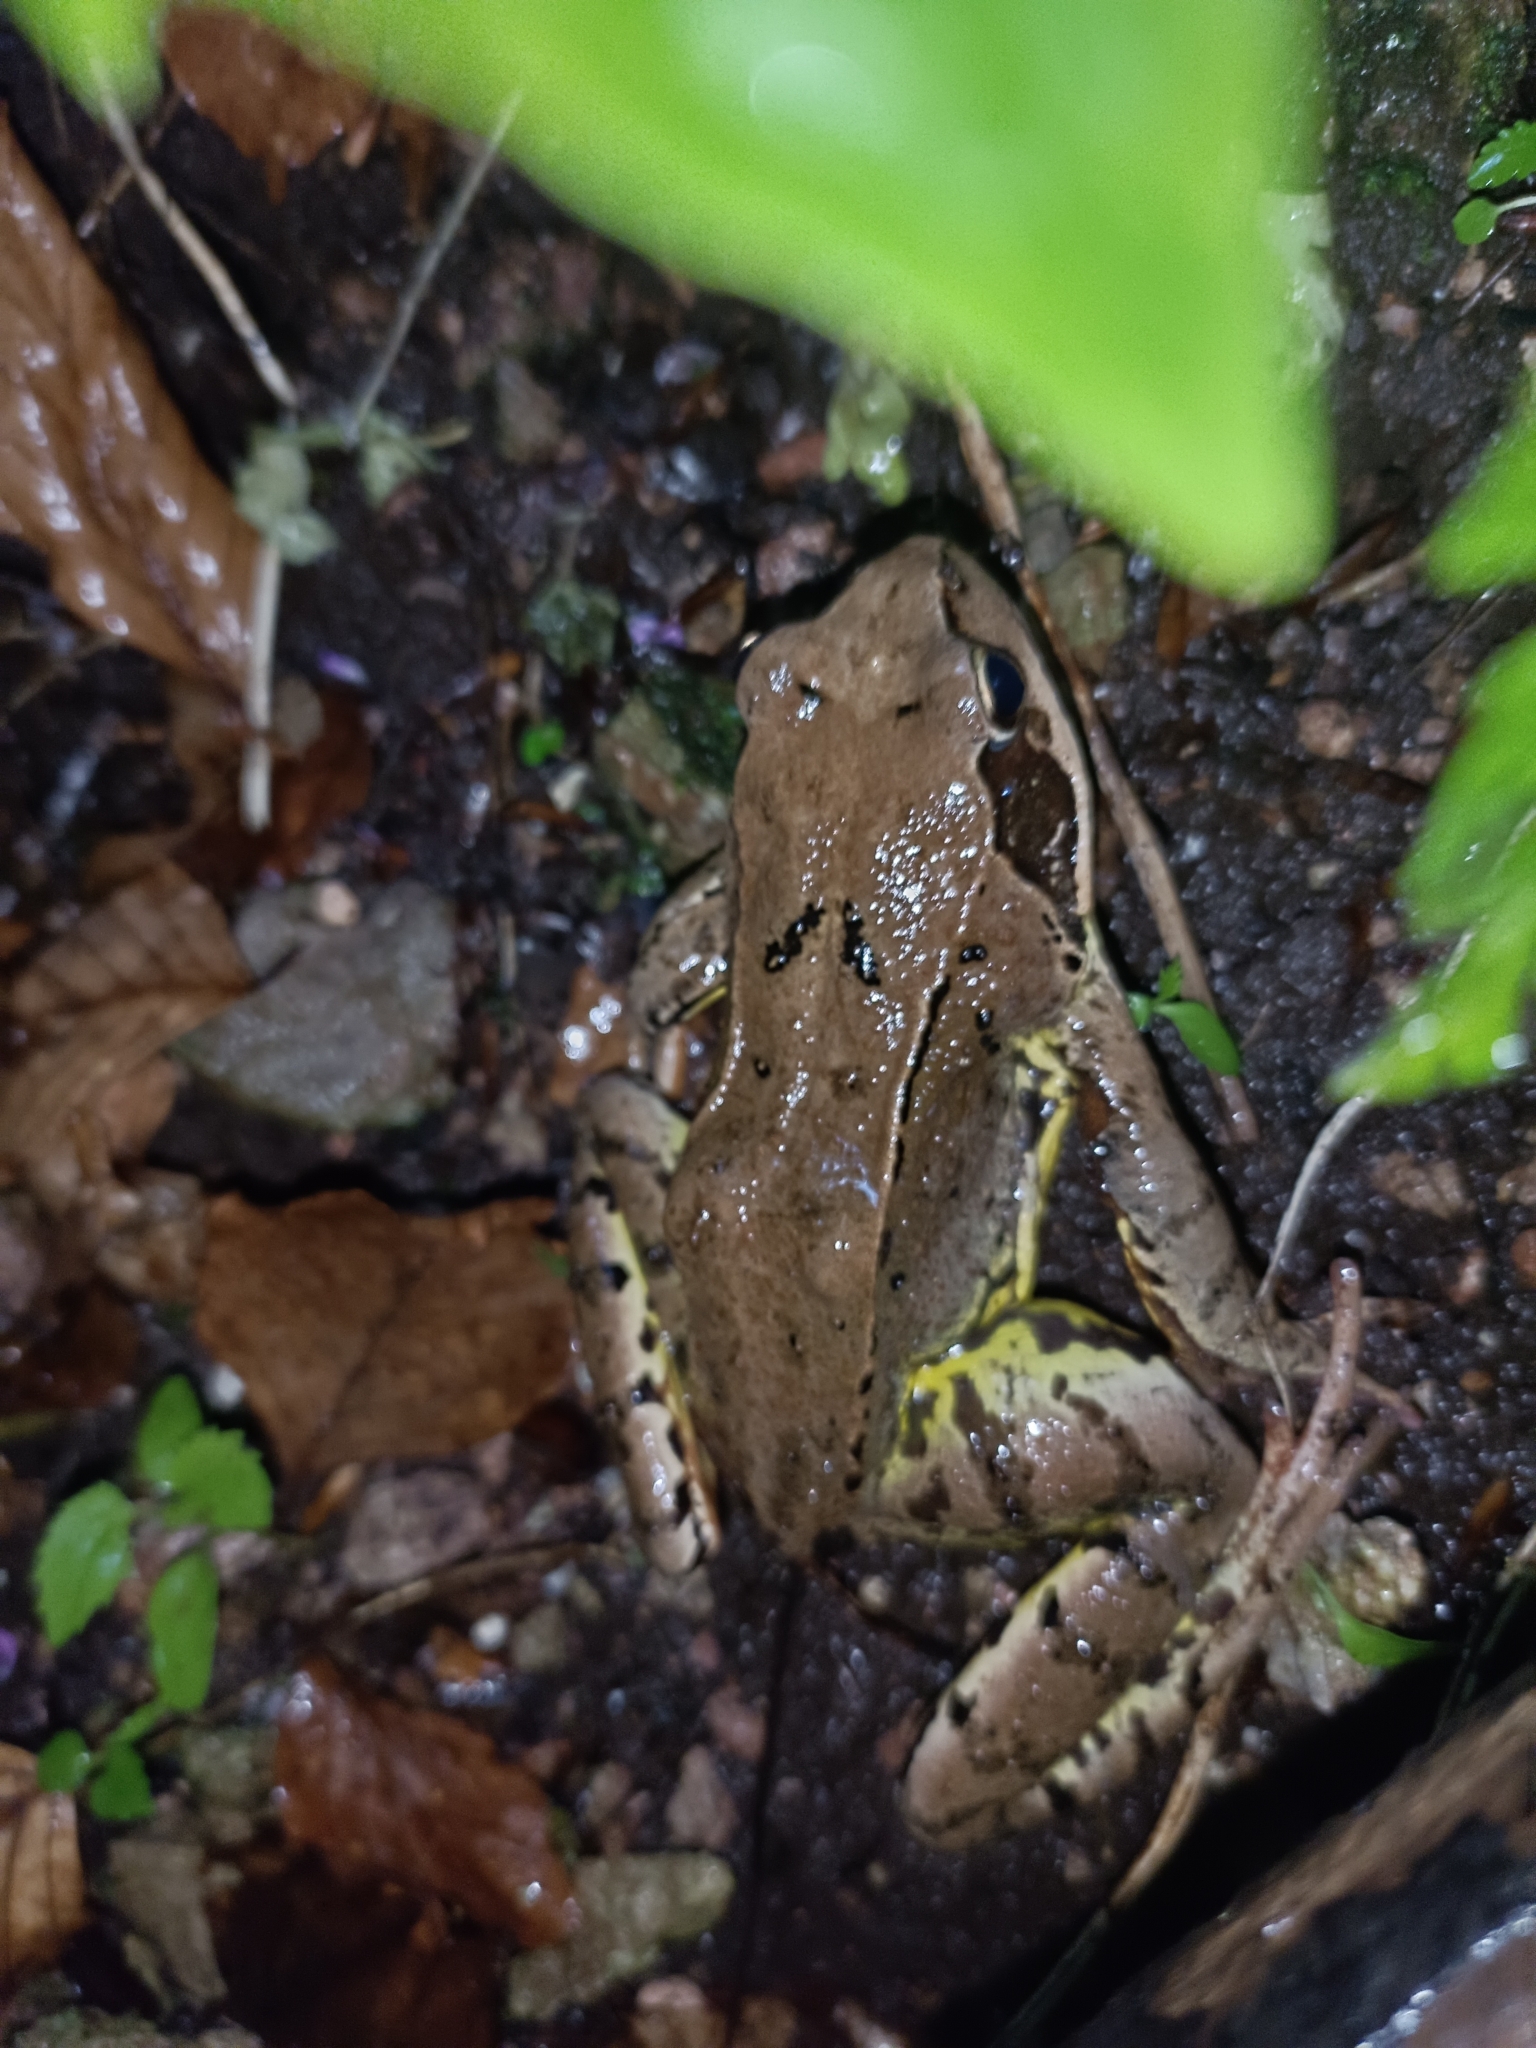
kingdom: Animalia
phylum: Chordata
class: Amphibia
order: Anura
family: Ranidae
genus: Rana
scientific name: Rana temporaria
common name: Common frog
